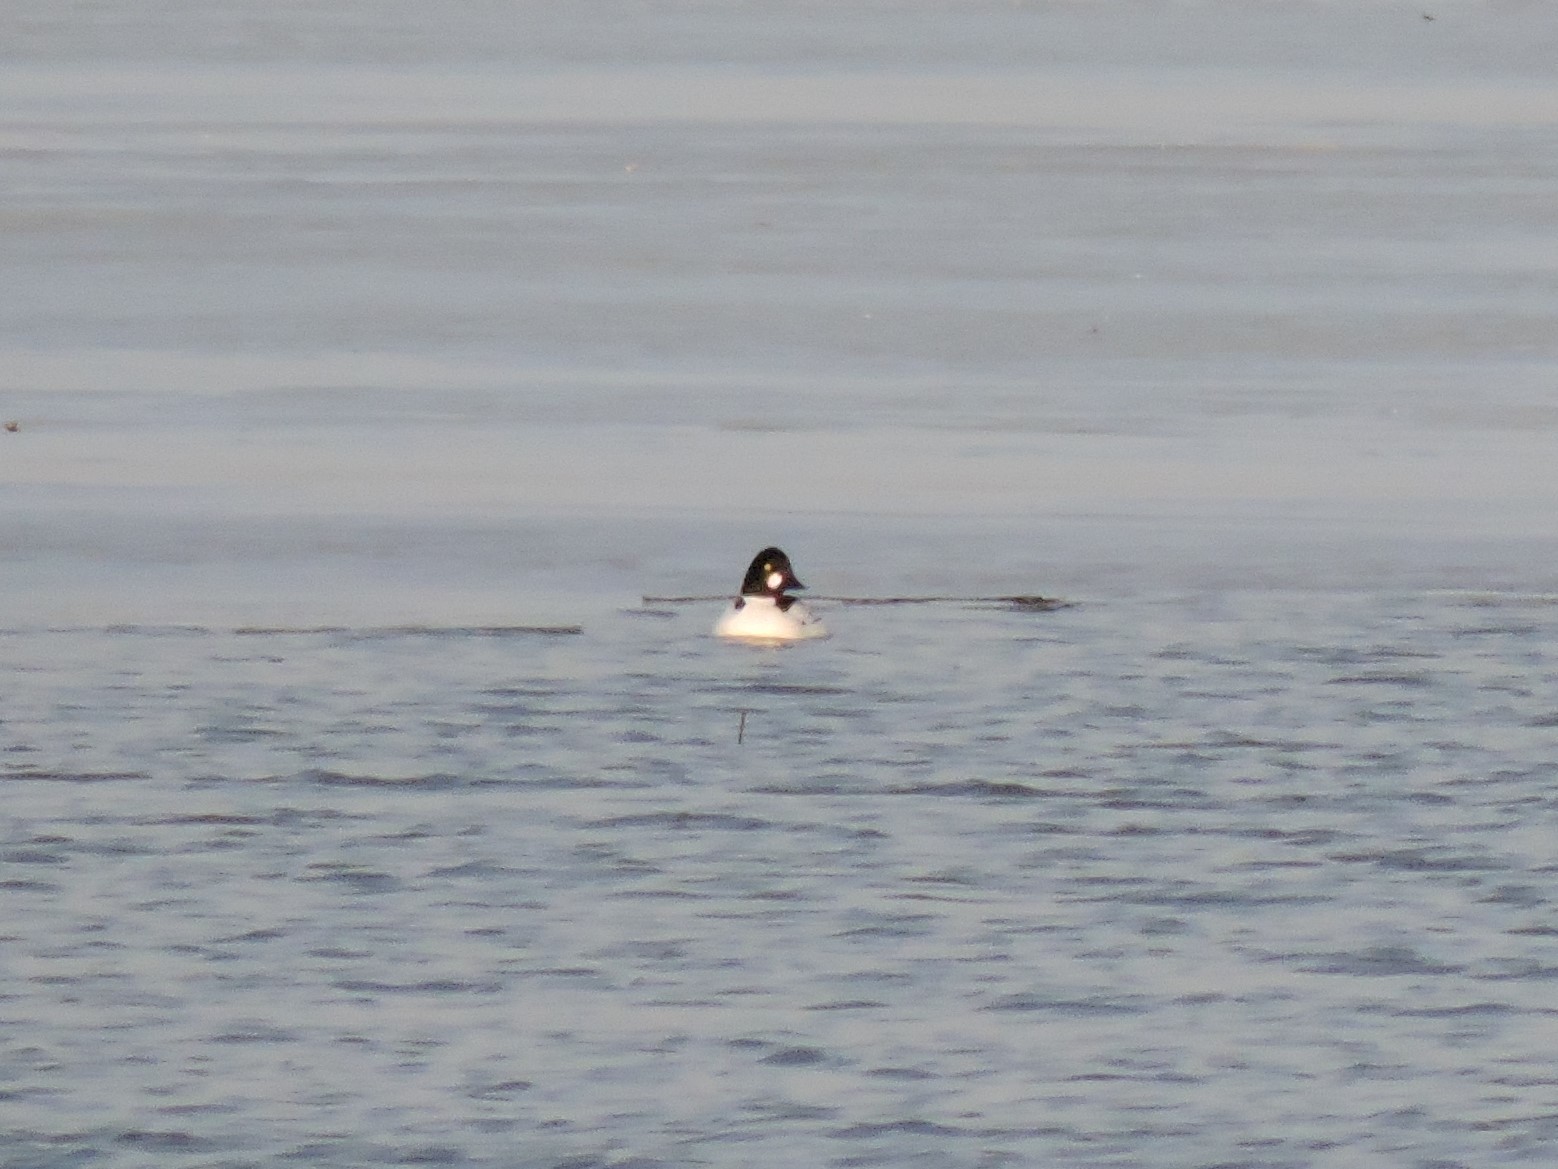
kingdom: Animalia
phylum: Chordata
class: Aves
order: Anseriformes
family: Anatidae
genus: Bucephala
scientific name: Bucephala clangula
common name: Common goldeneye
